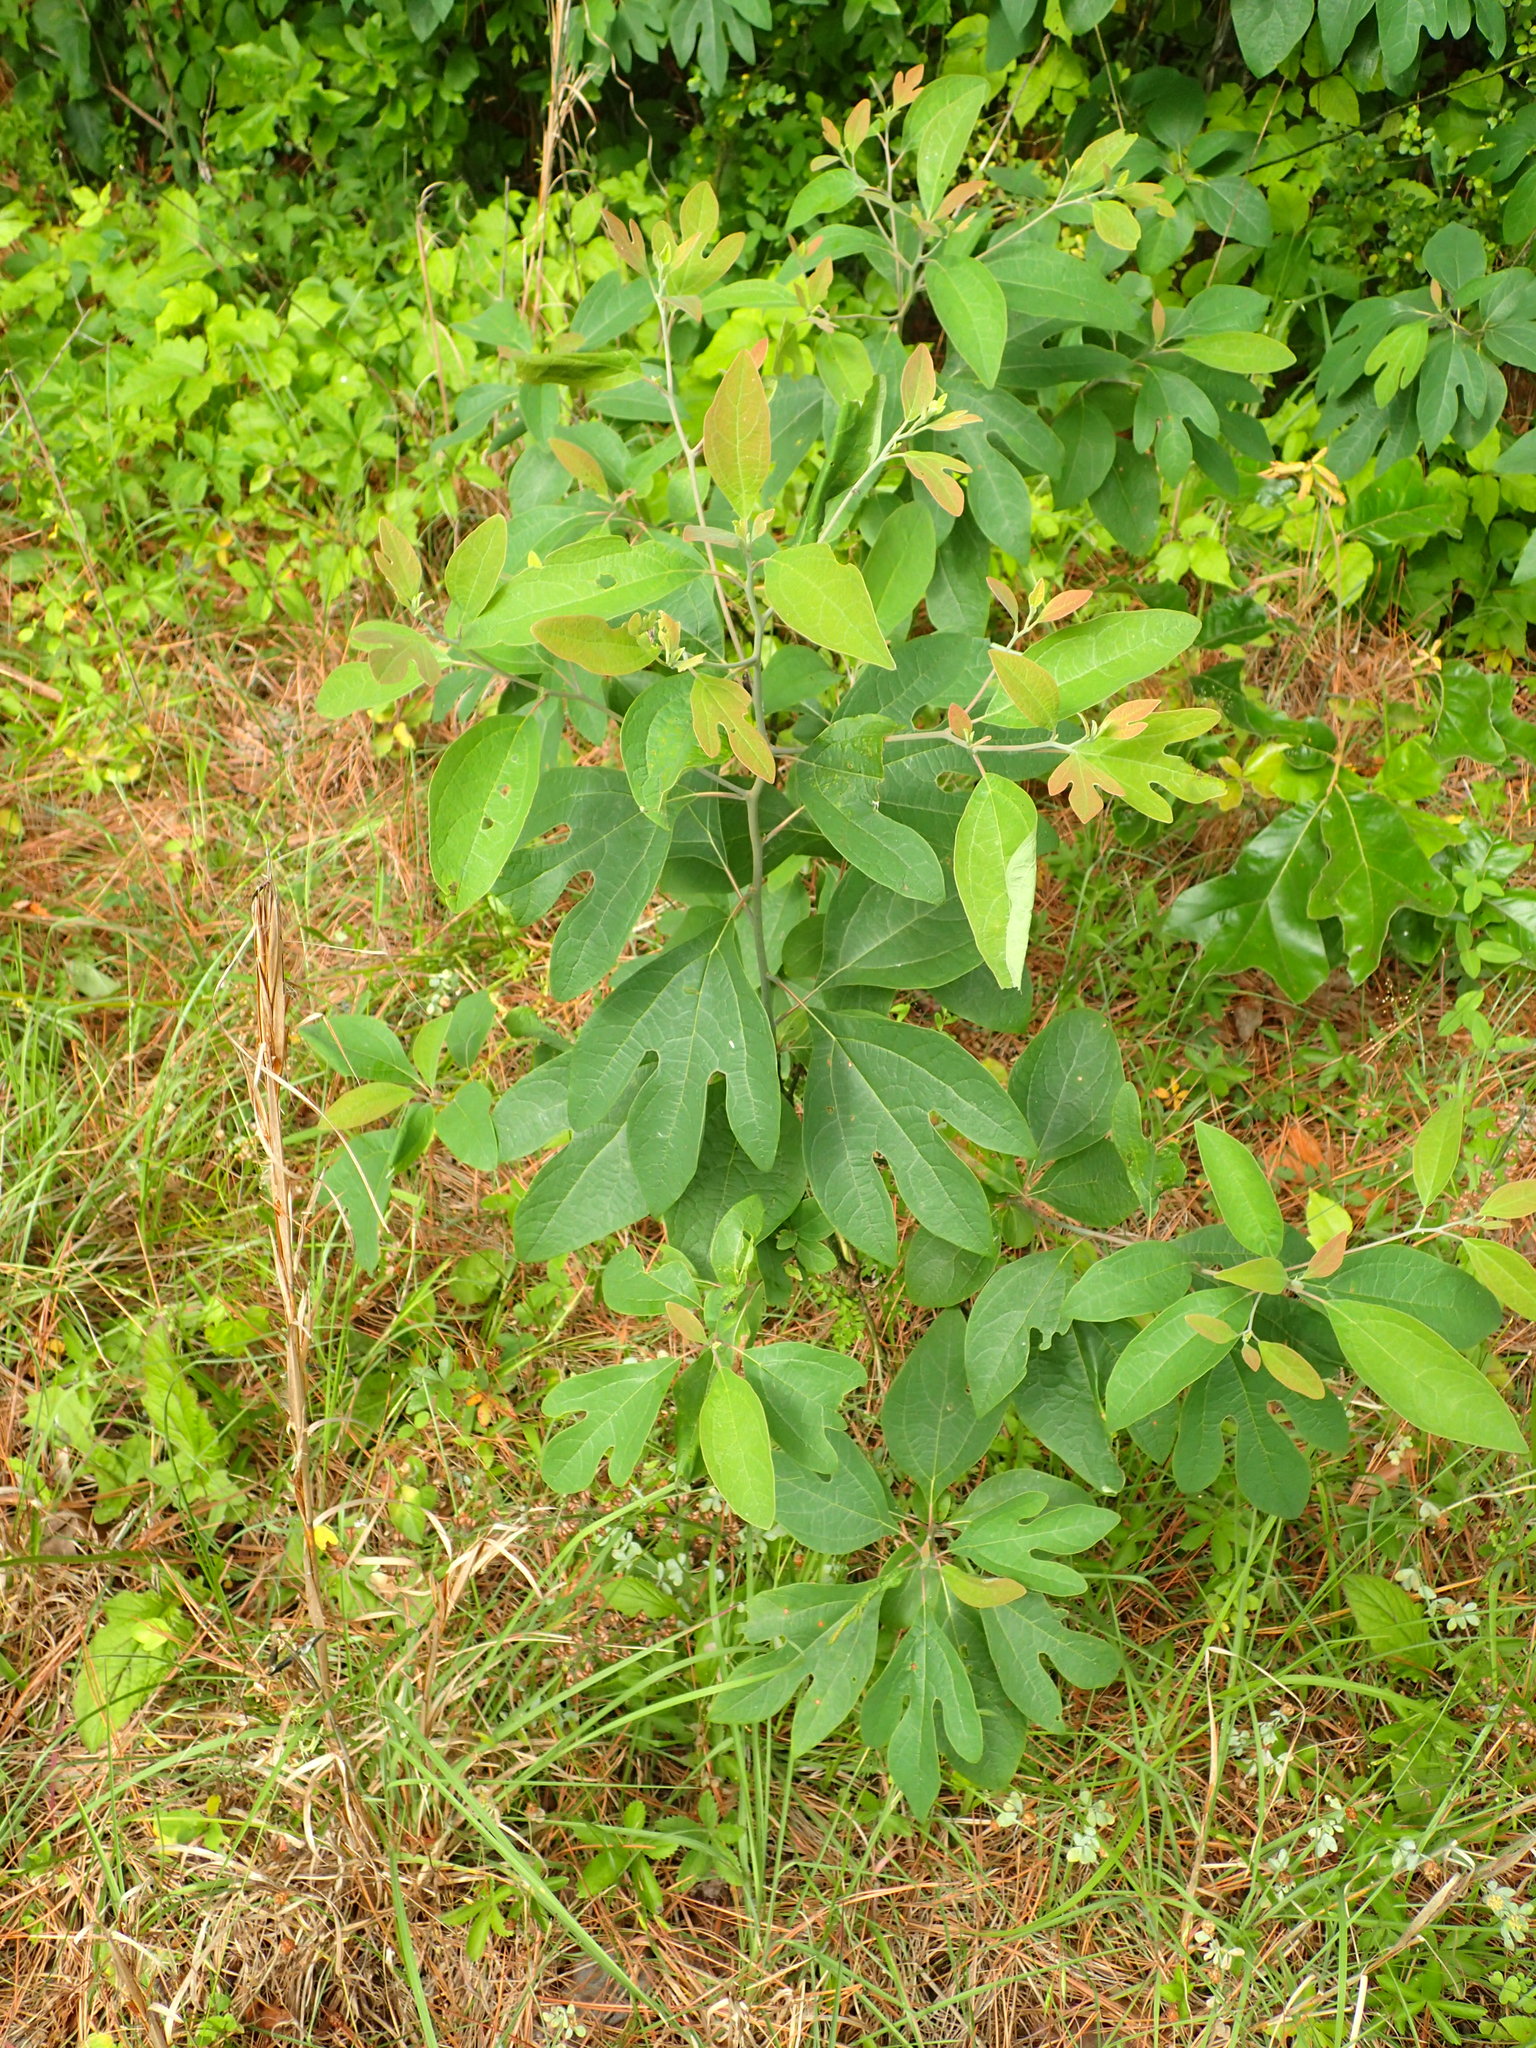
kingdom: Plantae
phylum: Tracheophyta
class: Magnoliopsida
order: Laurales
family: Lauraceae
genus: Sassafras
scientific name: Sassafras albidum
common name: Sassafras
